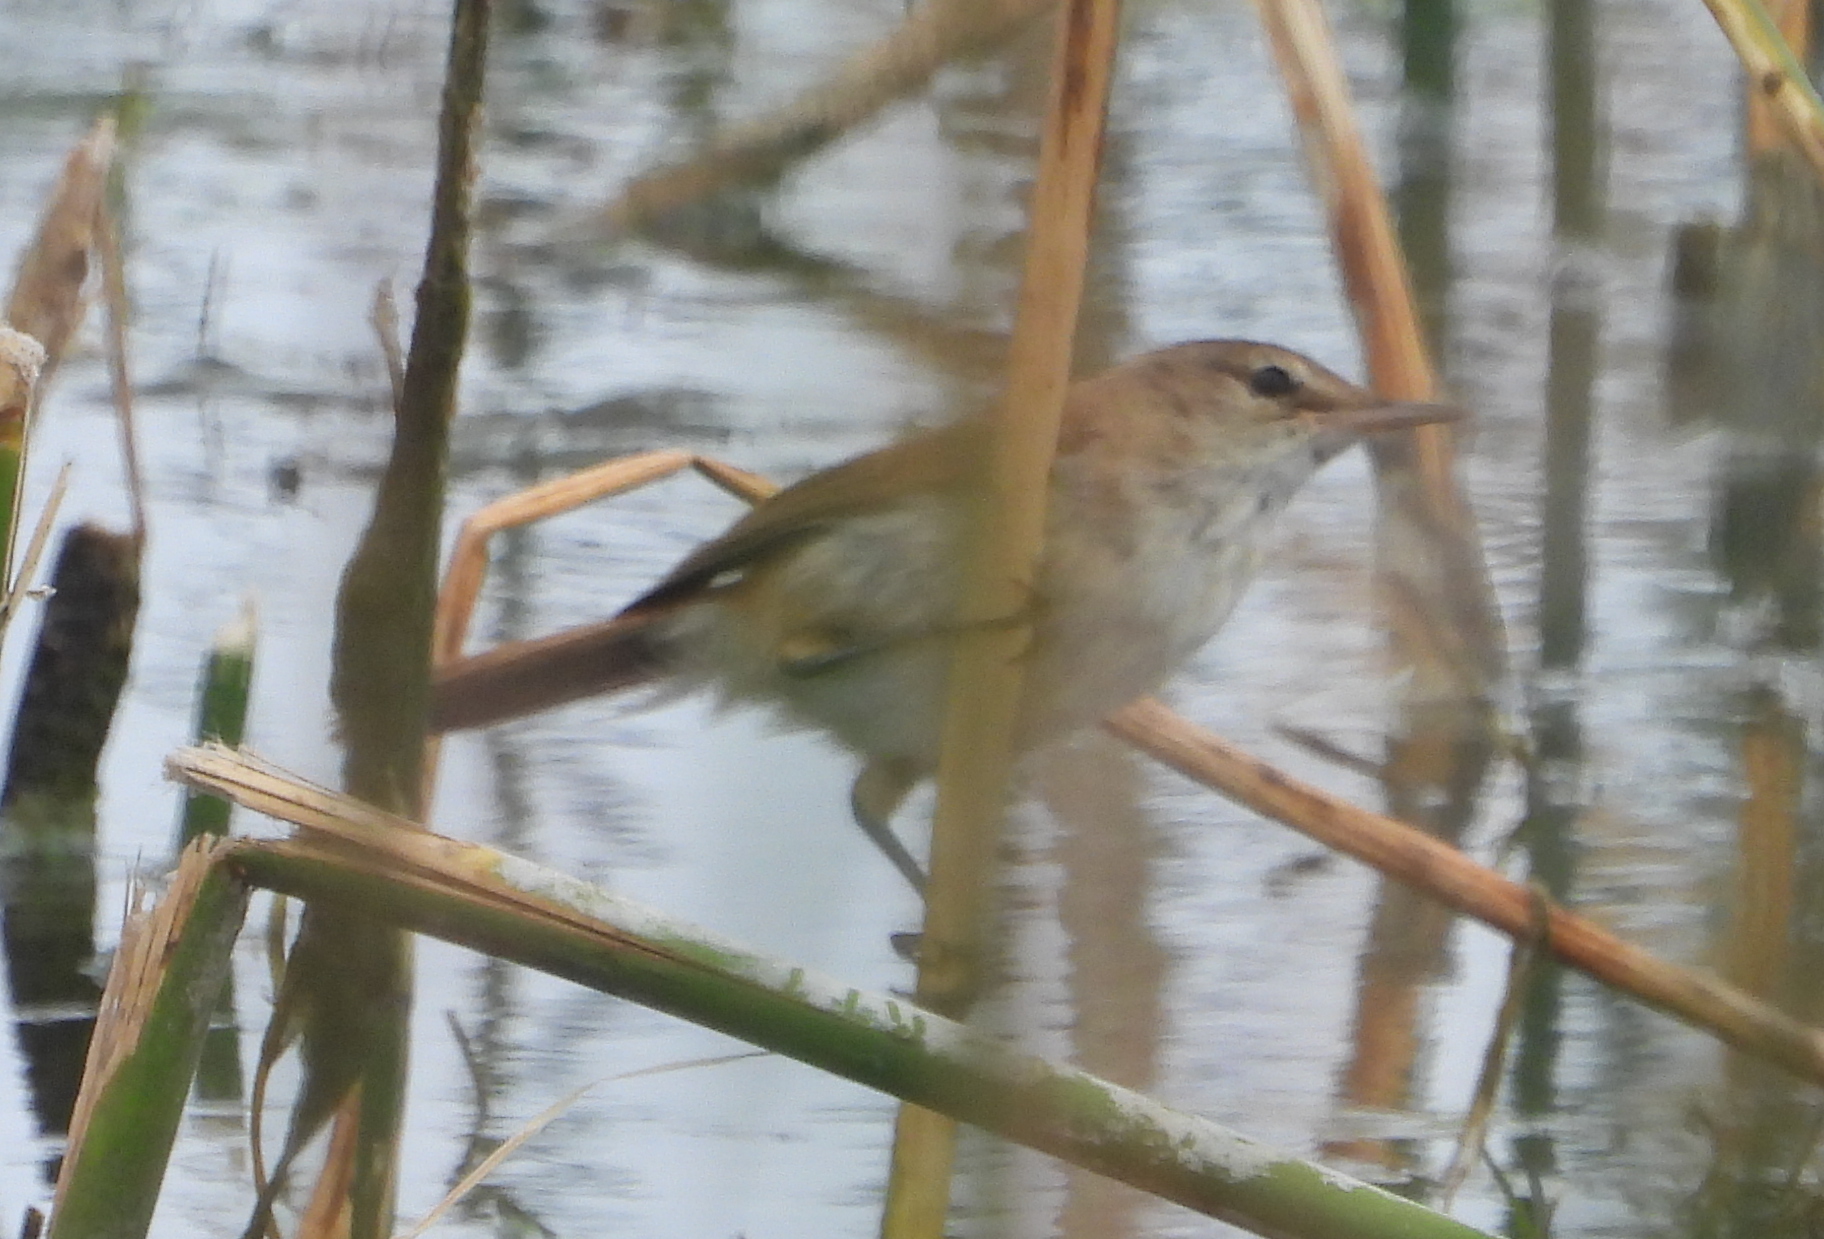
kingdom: Animalia
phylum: Chordata
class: Aves
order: Passeriformes
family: Acrocephalidae
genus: Acrocephalus
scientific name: Acrocephalus gracilirostris
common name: Lesser swamp warbler
